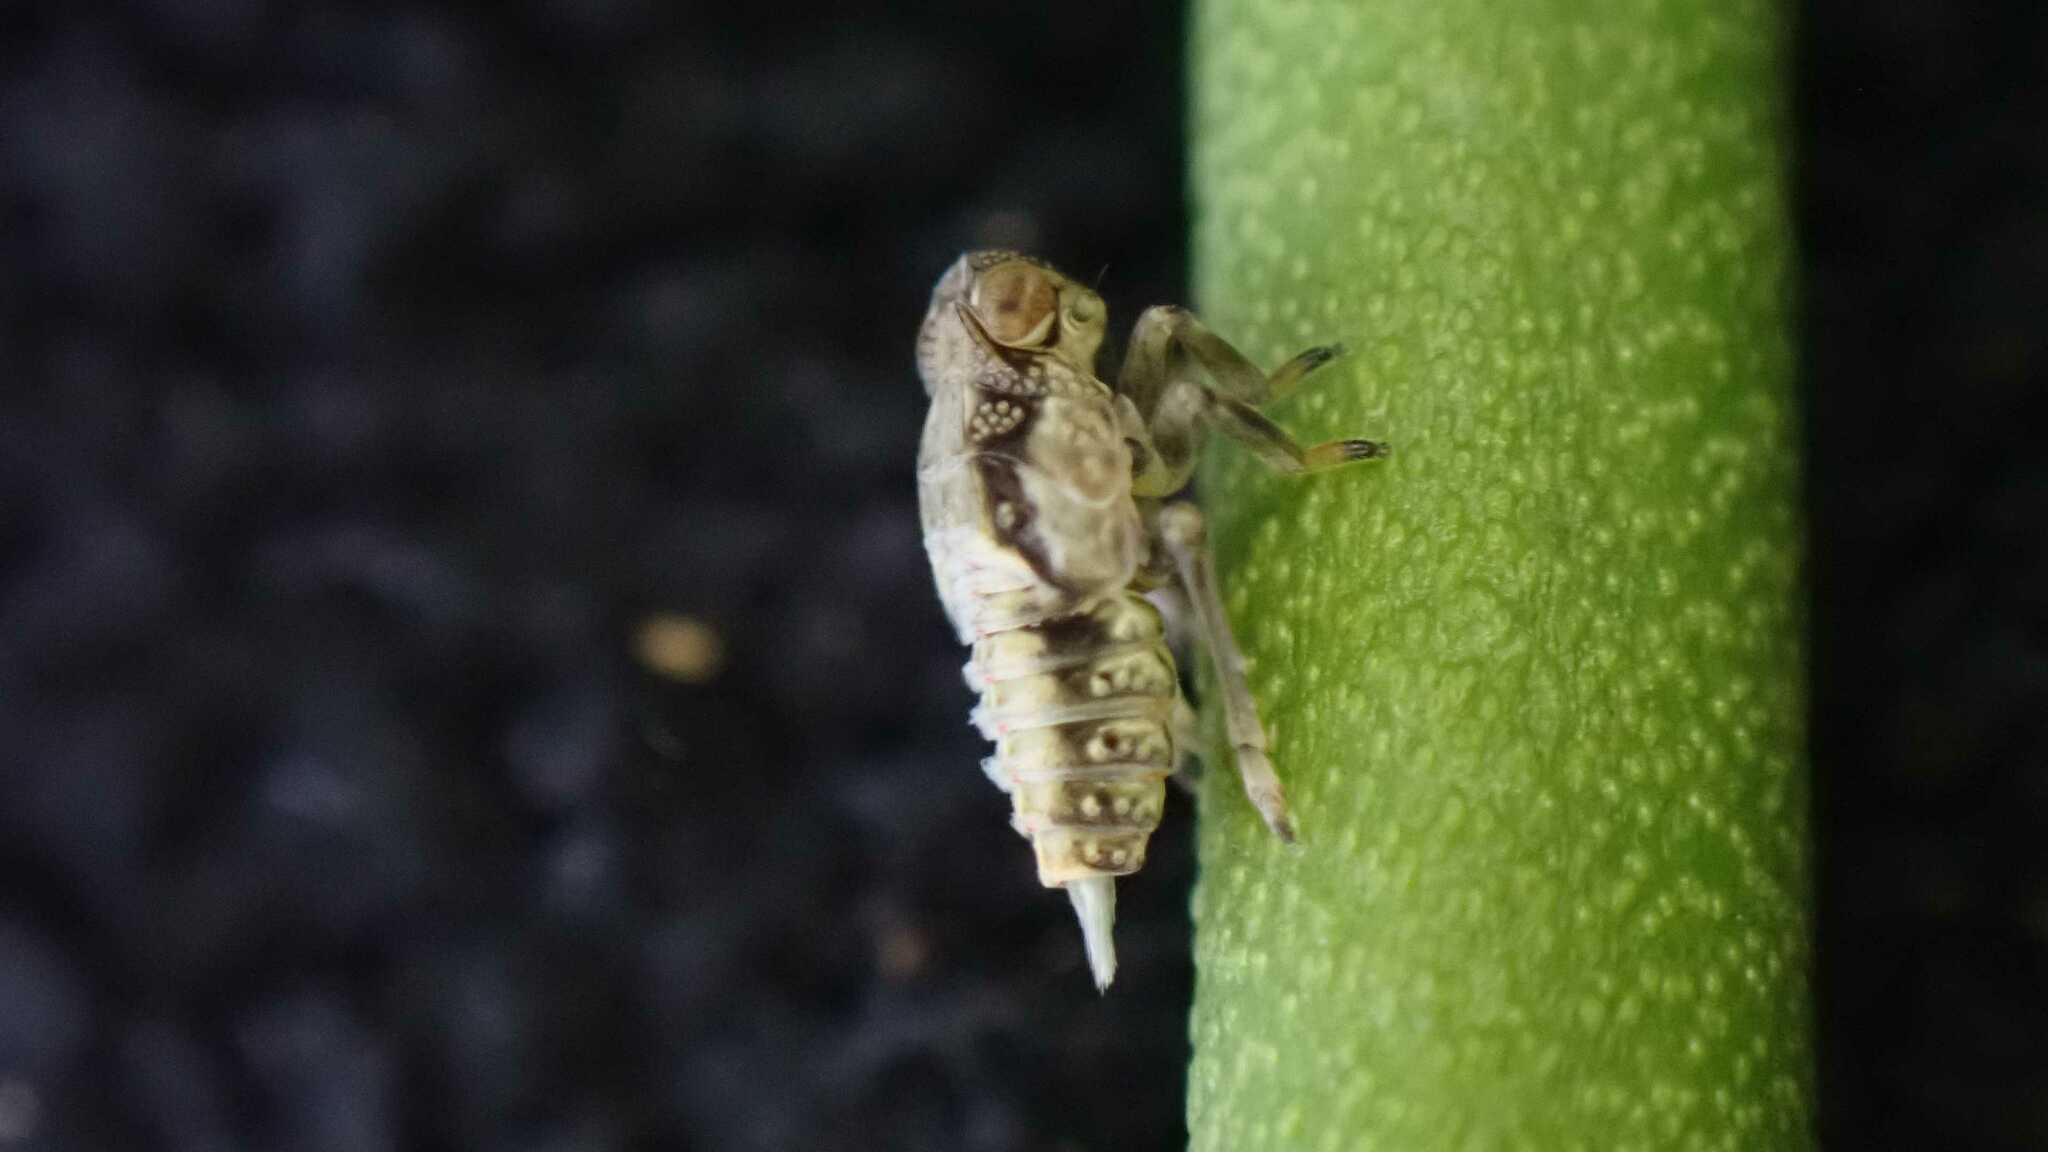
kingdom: Animalia
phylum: Arthropoda
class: Insecta
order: Hemiptera
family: Issidae
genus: Issus
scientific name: Issus coleoptratus
